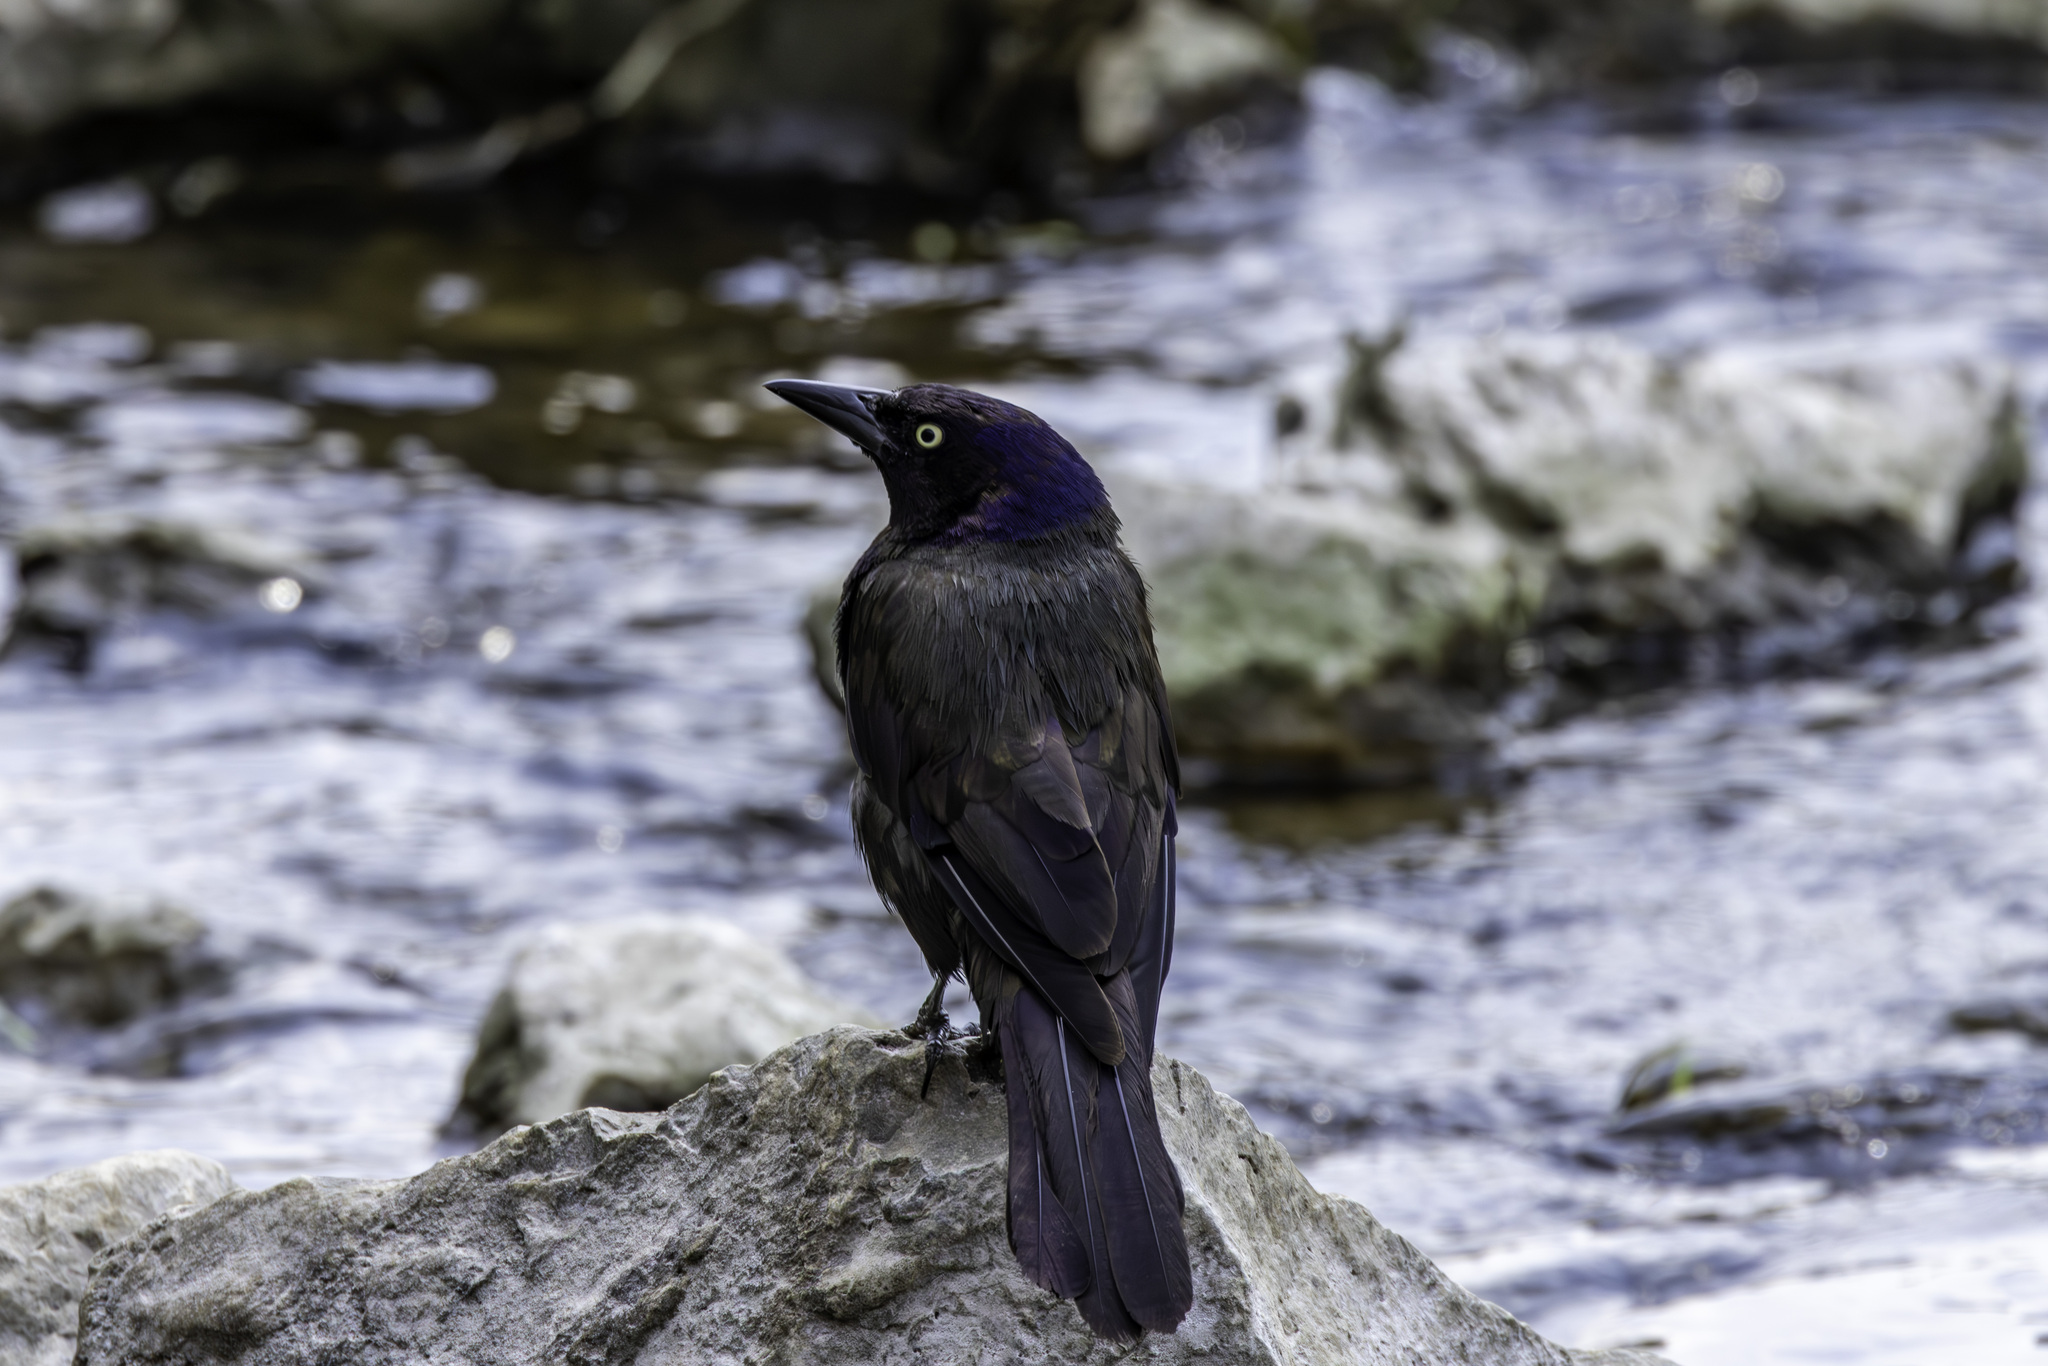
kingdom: Animalia
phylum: Chordata
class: Aves
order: Passeriformes
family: Icteridae
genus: Quiscalus
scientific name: Quiscalus quiscula
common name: Common grackle
